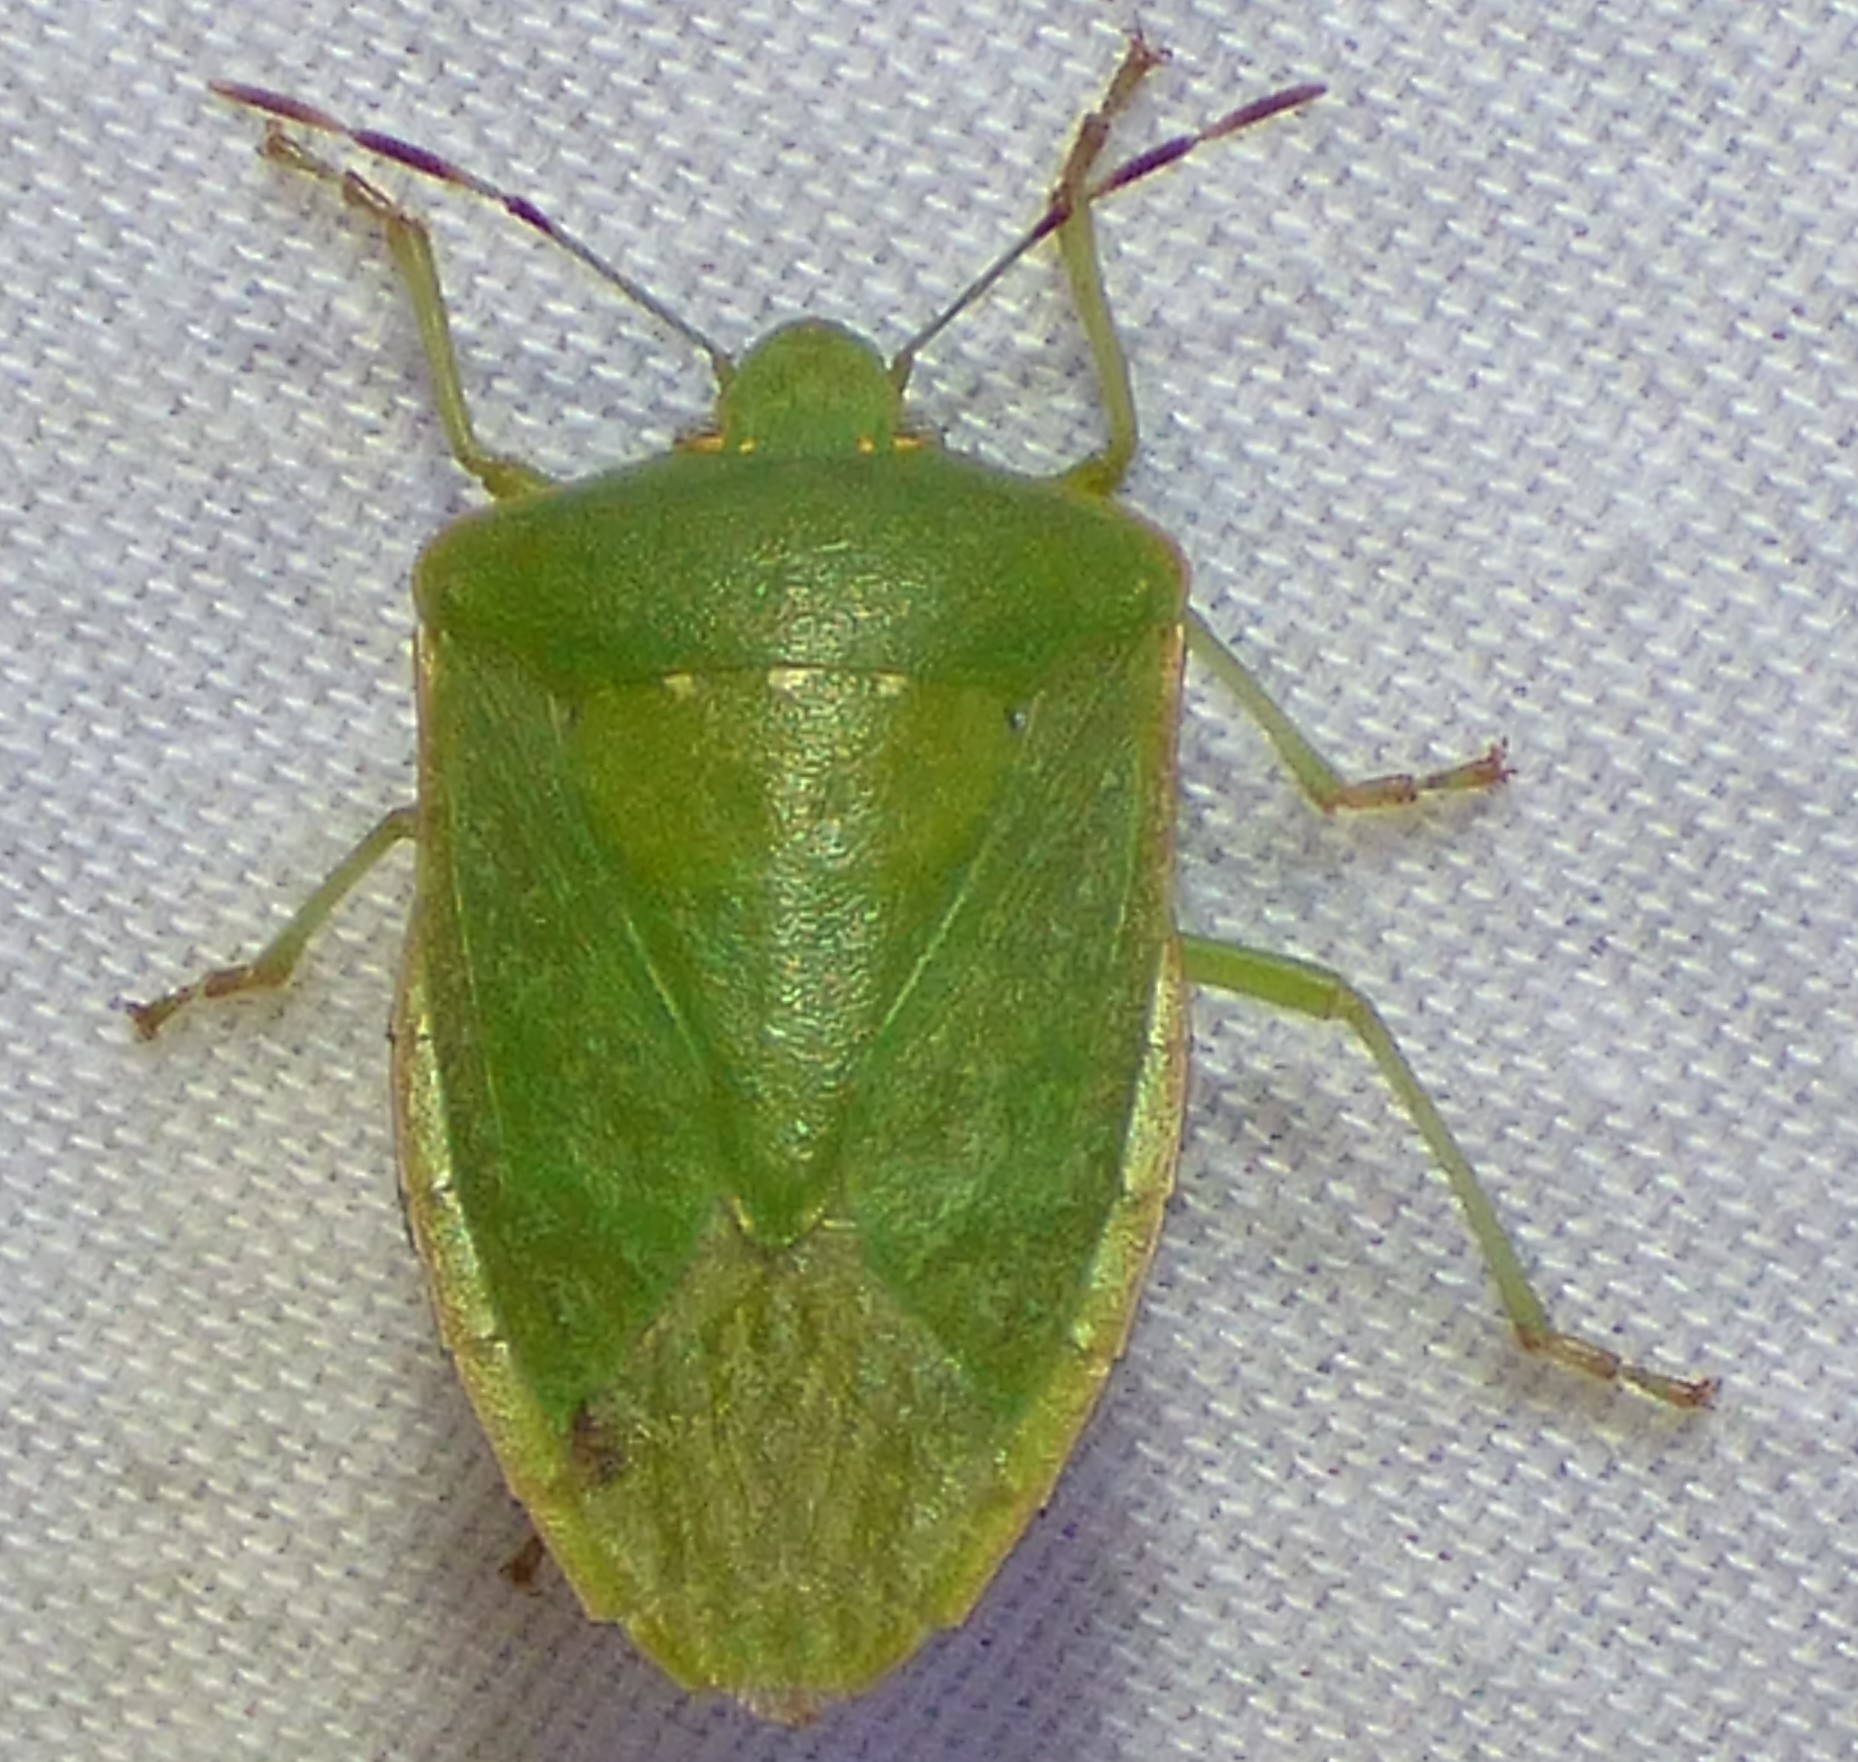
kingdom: Animalia
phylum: Arthropoda
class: Insecta
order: Hemiptera
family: Pentatomidae
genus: Nezara
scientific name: Nezara viridula
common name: Southern green stink bug
